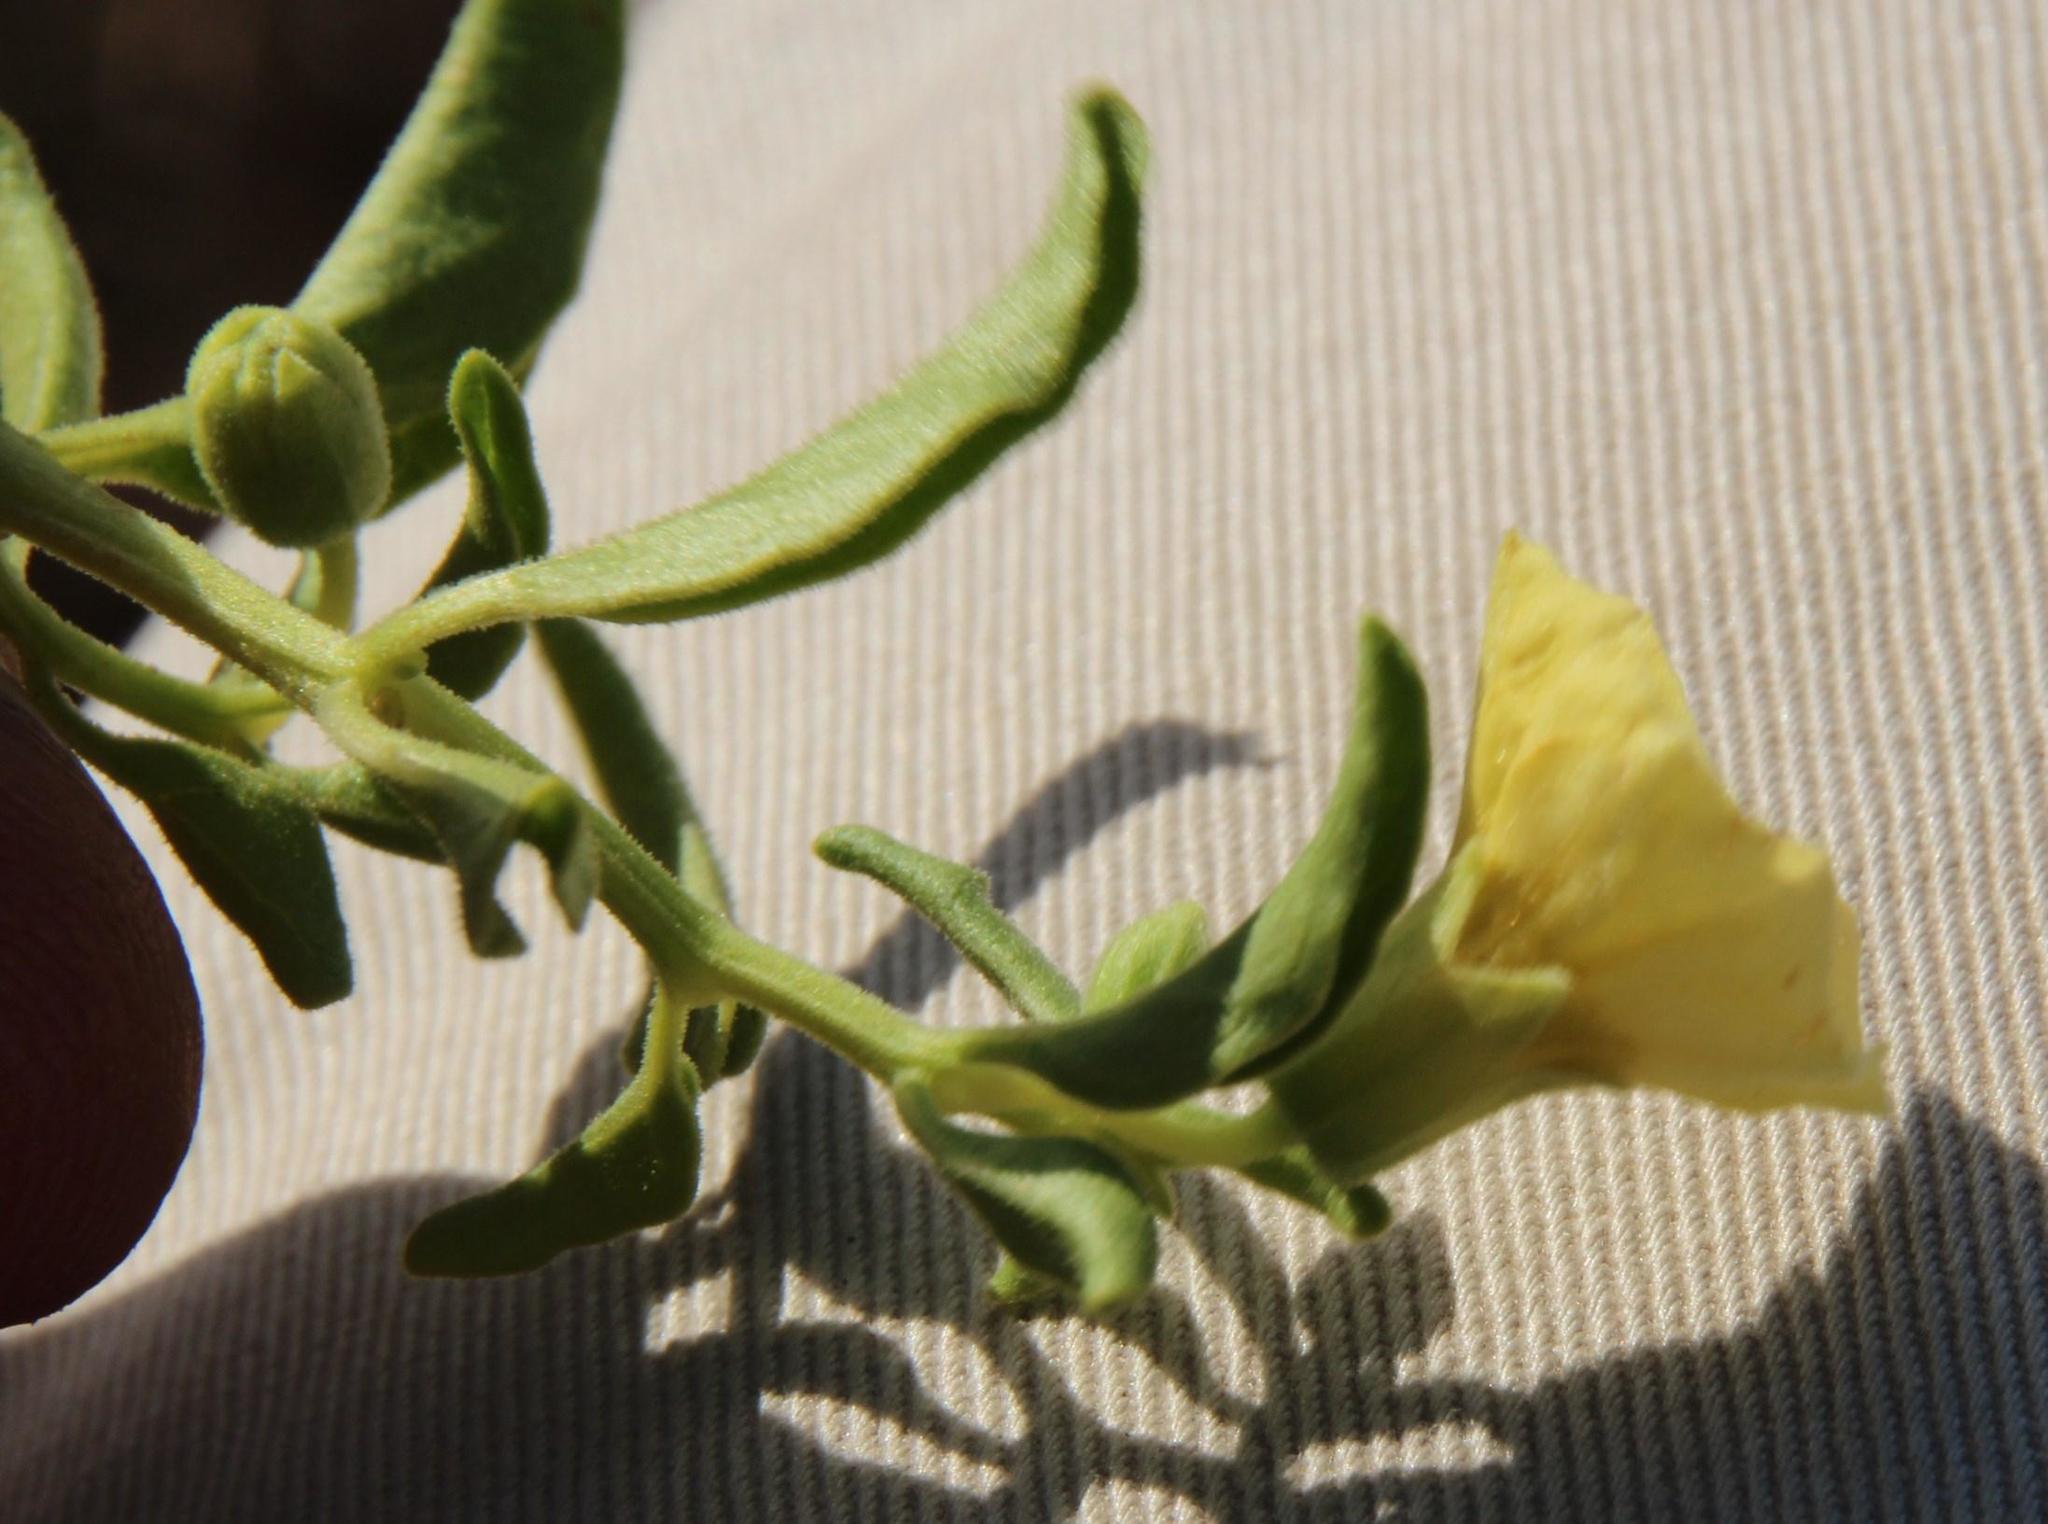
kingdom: Plantae
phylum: Tracheophyta
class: Magnoliopsida
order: Solanales
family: Solanaceae
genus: Physalis
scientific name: Physalis viscosa
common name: Stellate ground-cherry
